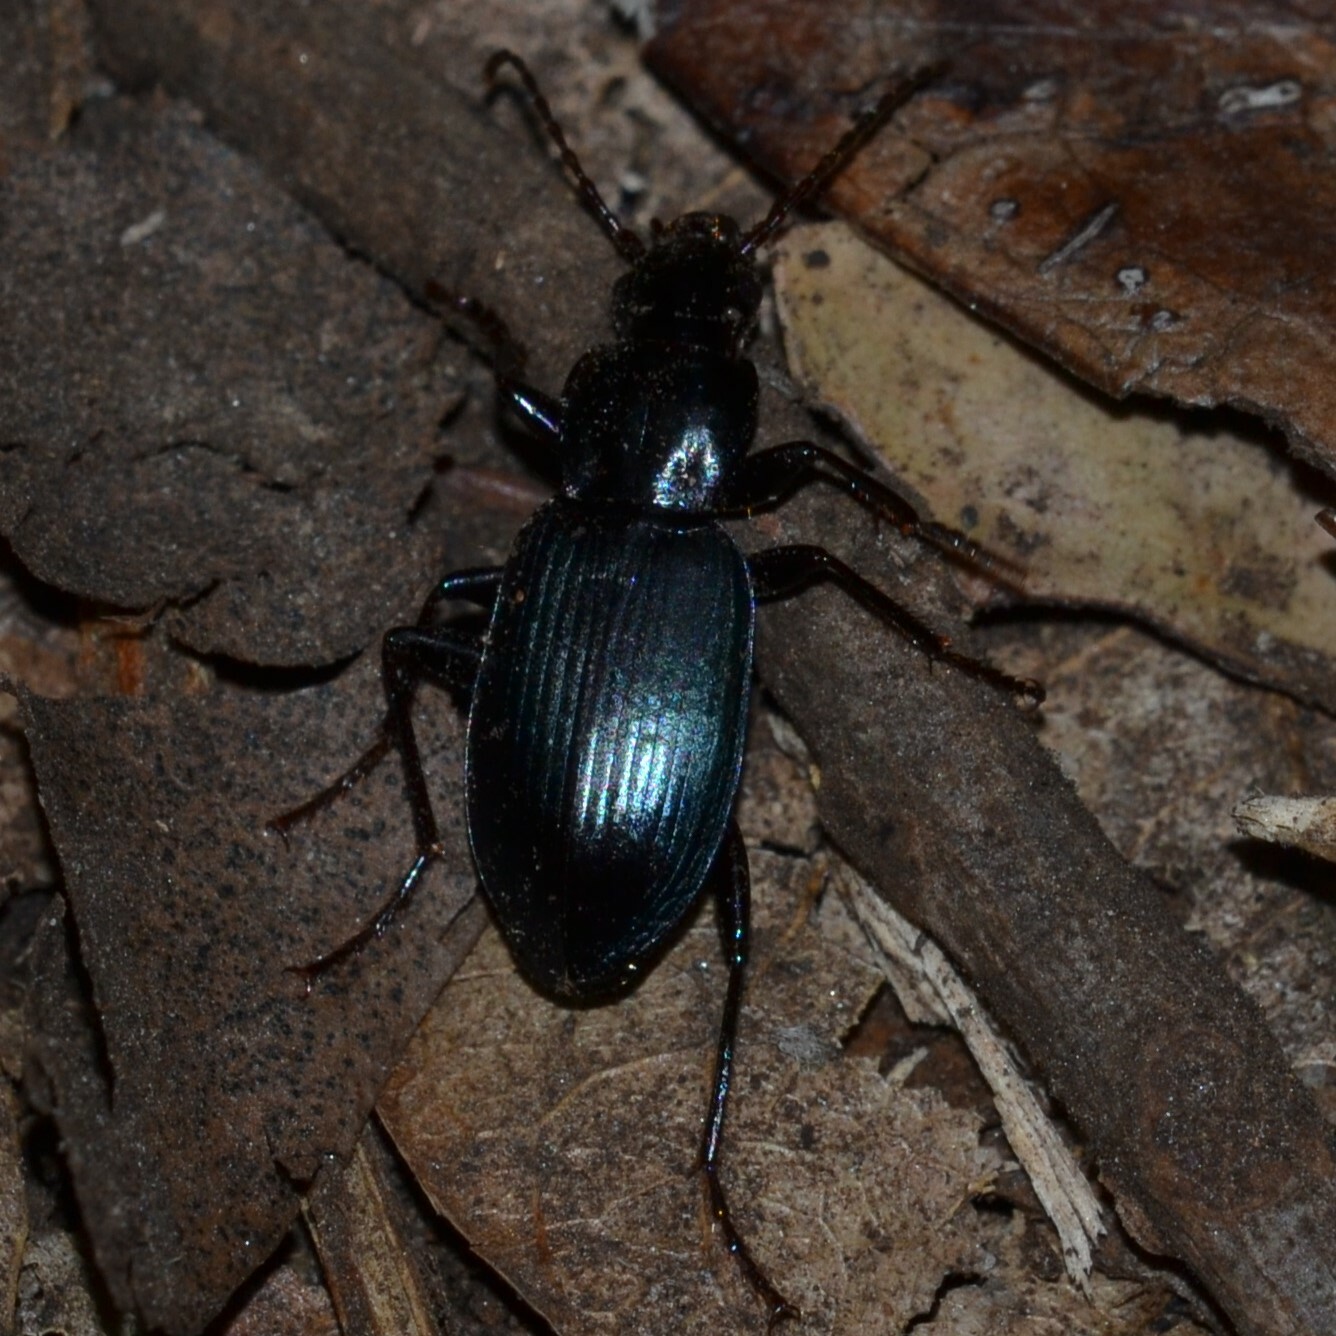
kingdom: Animalia
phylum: Arthropoda
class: Insecta
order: Coleoptera
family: Carabidae
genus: Laemostenus
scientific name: Laemostenus complanatus
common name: Cosmopolitan ground beetle
